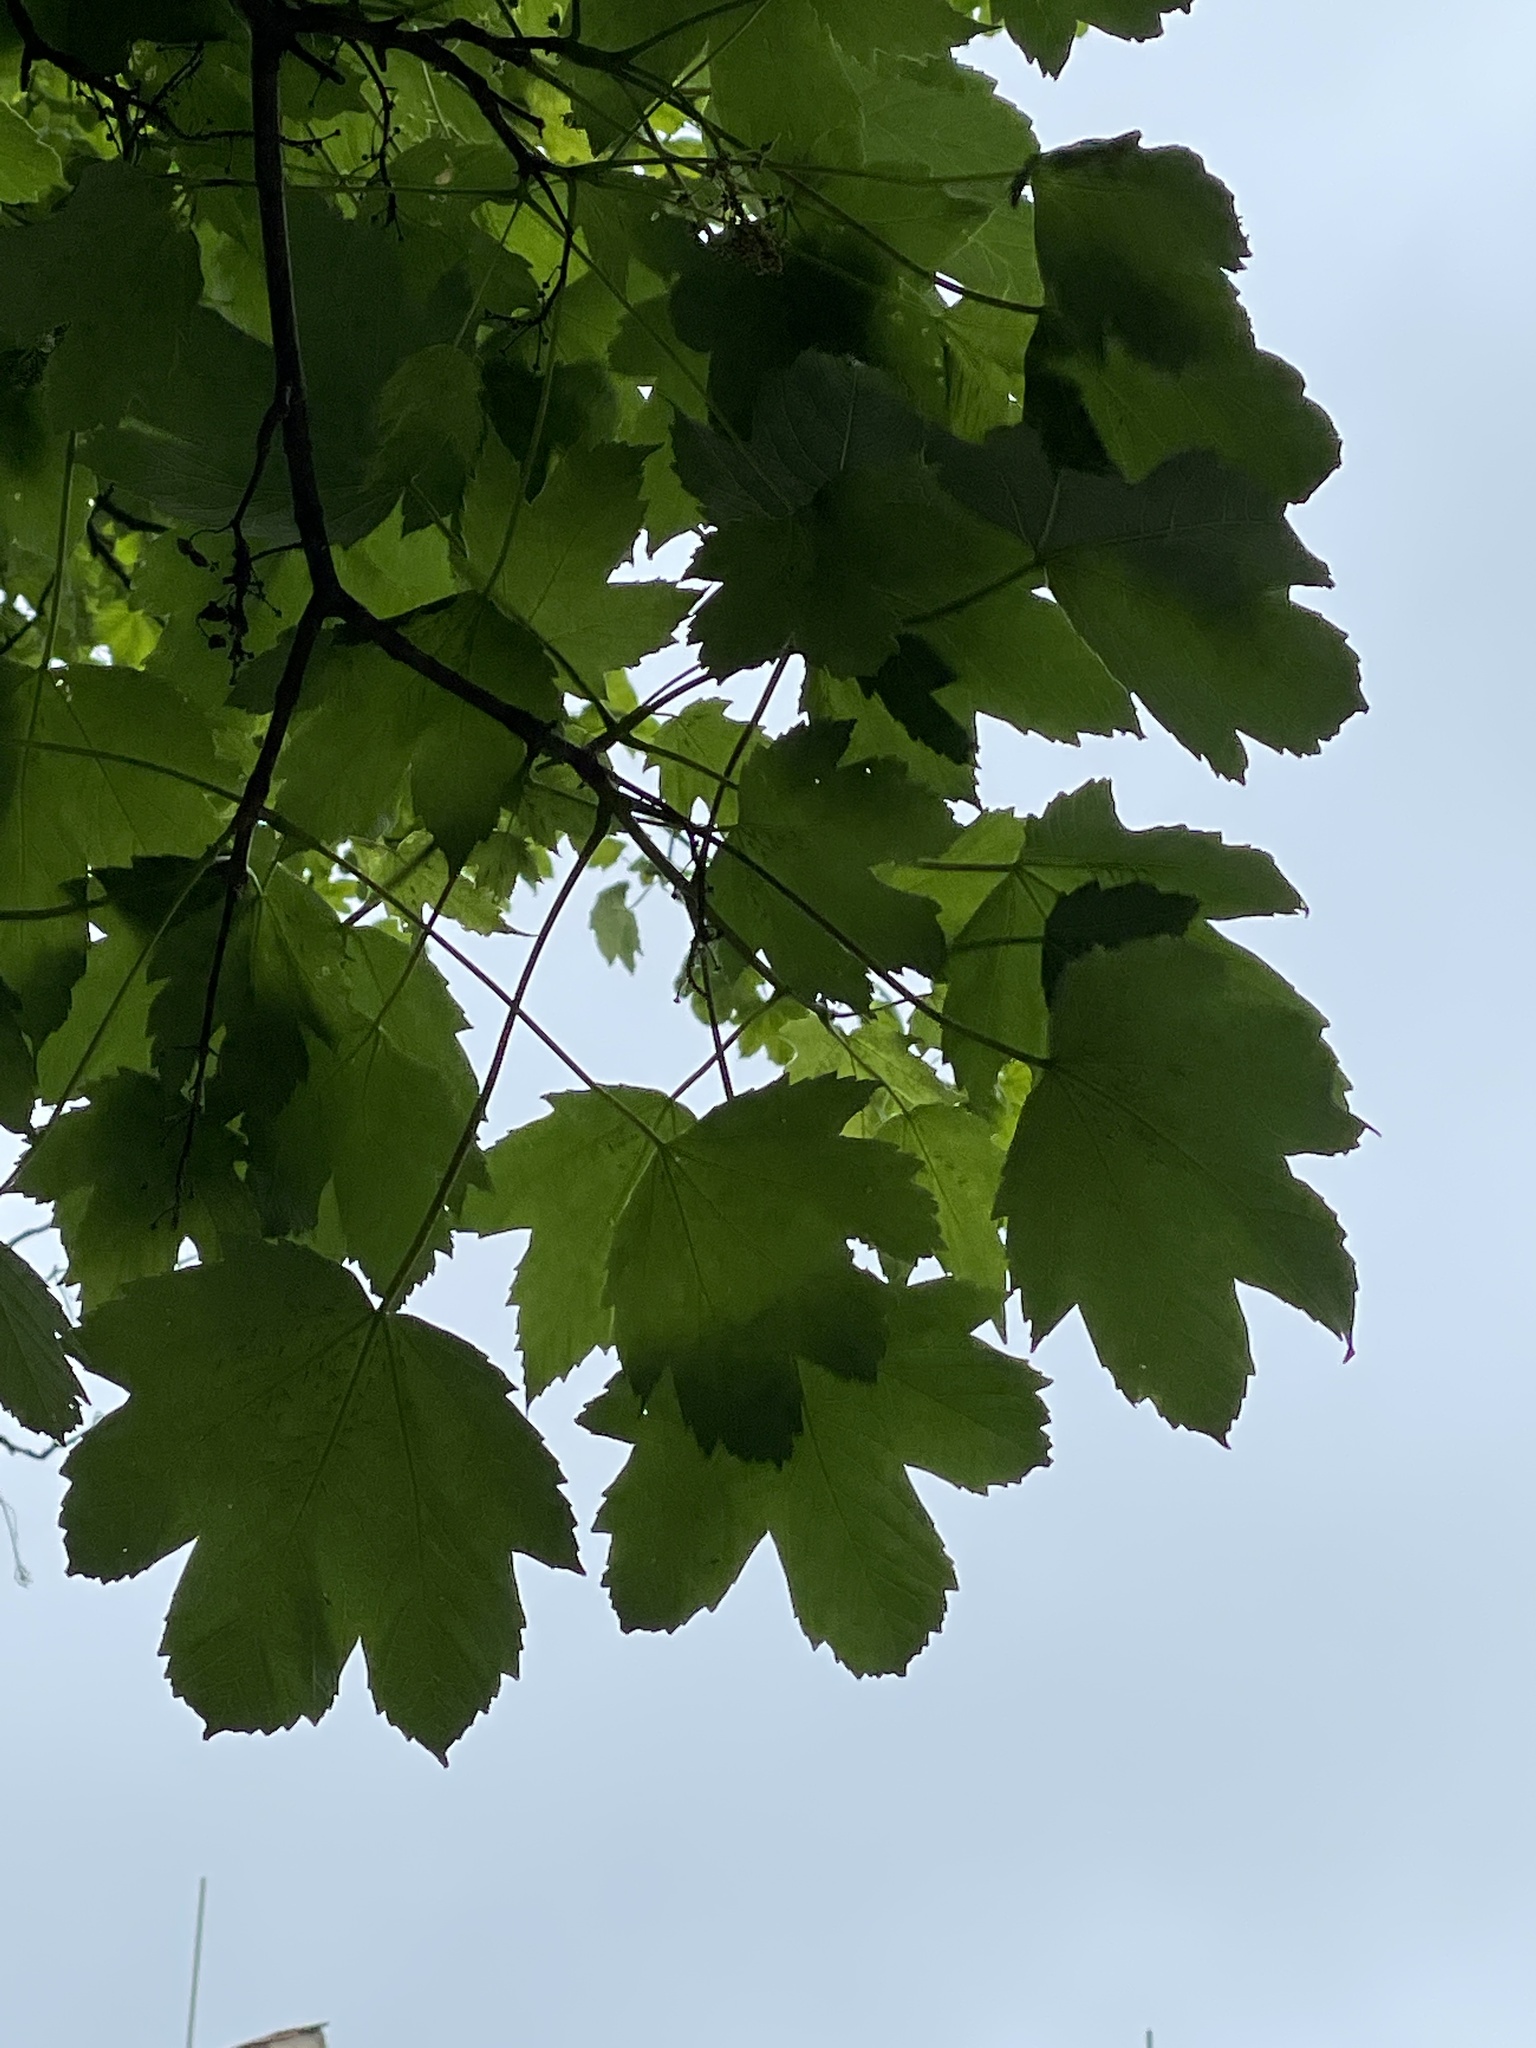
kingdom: Plantae
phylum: Tracheophyta
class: Magnoliopsida
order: Sapindales
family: Sapindaceae
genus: Acer
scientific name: Acer pseudoplatanus
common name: Sycamore
